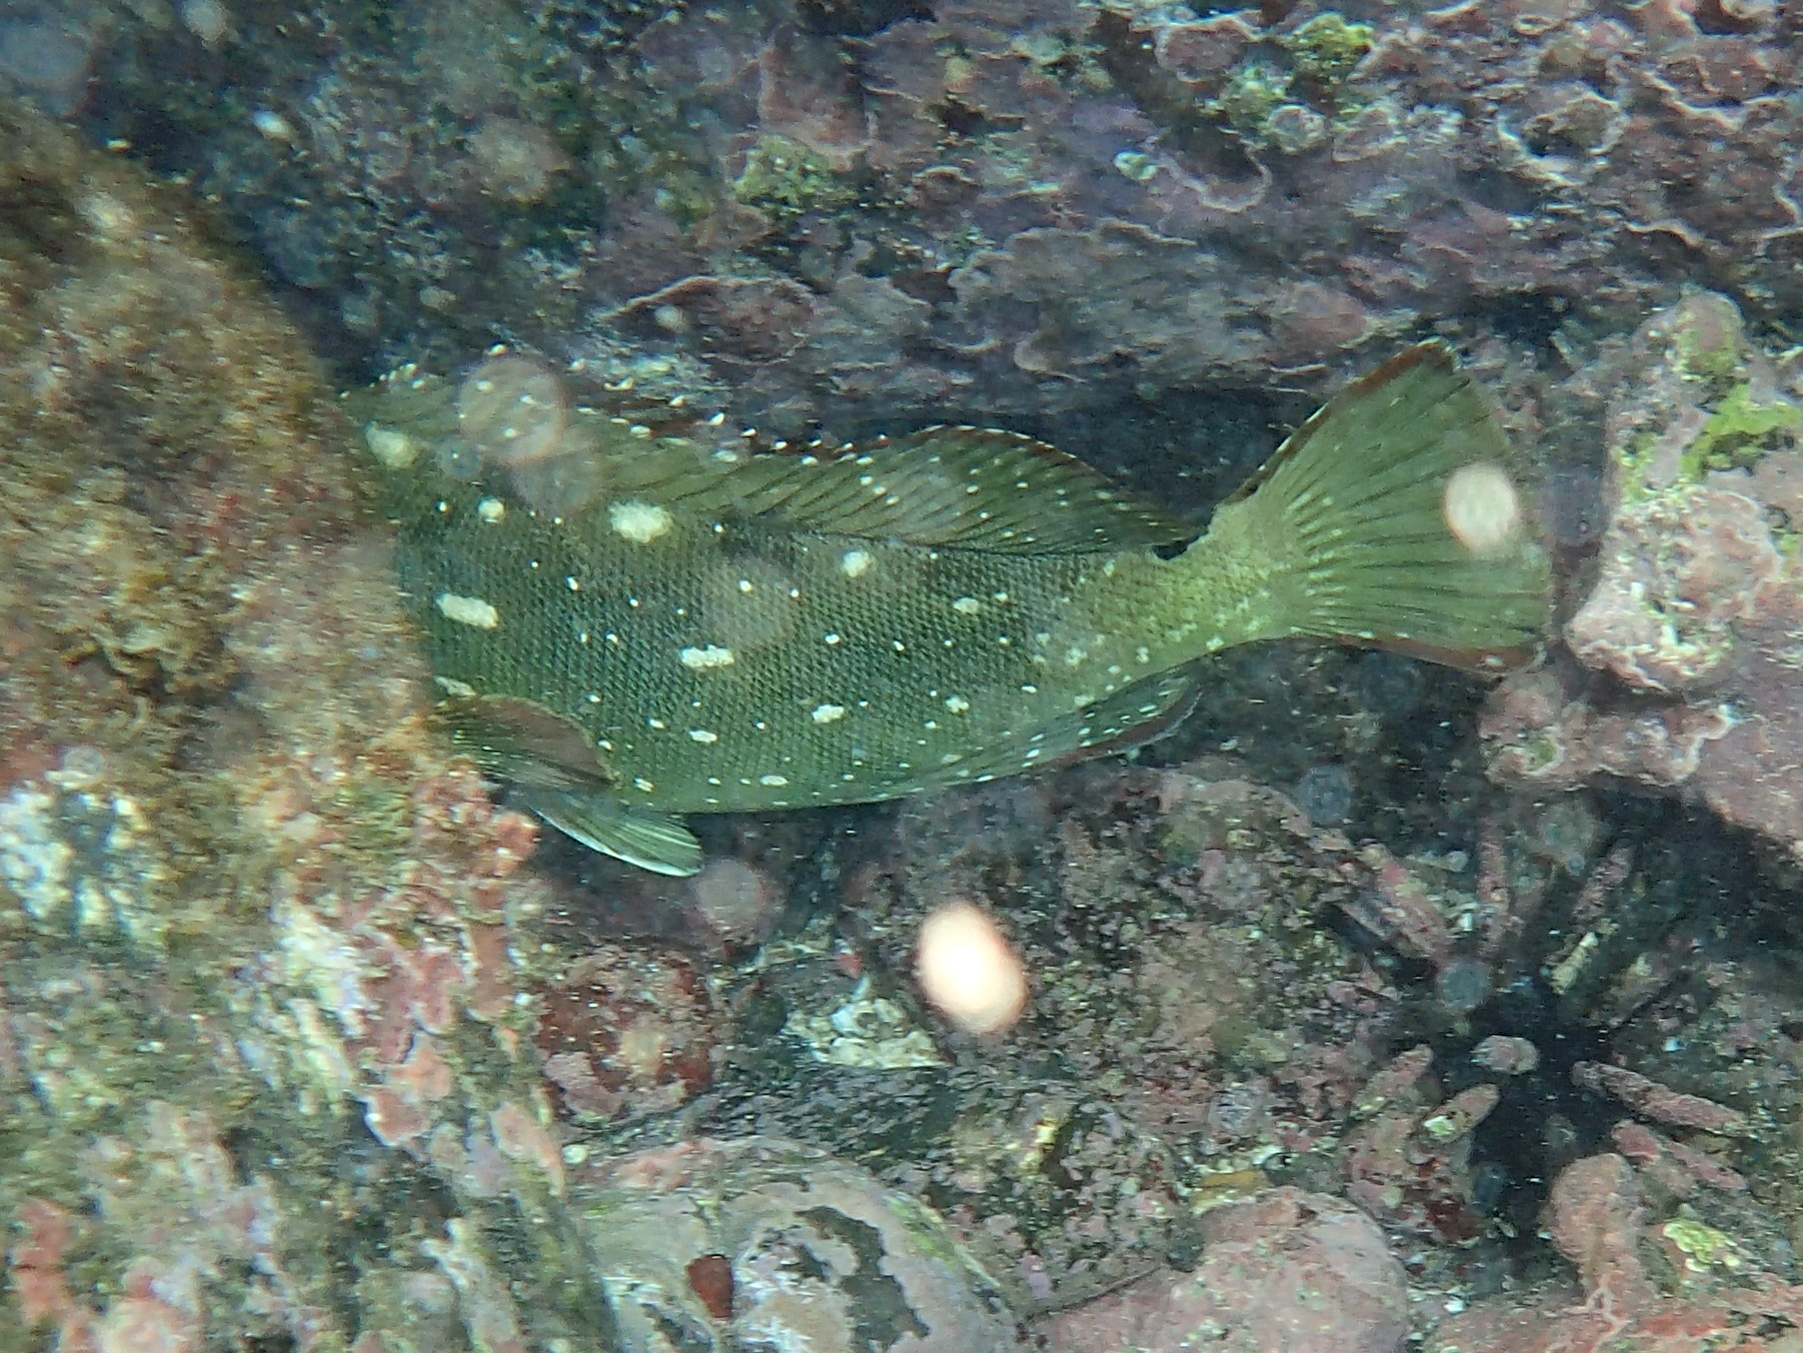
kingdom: Animalia
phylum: Chordata
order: Perciformes
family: Serranidae
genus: Epinephelus
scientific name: Epinephelus labriformis
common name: Flag cabrilla
